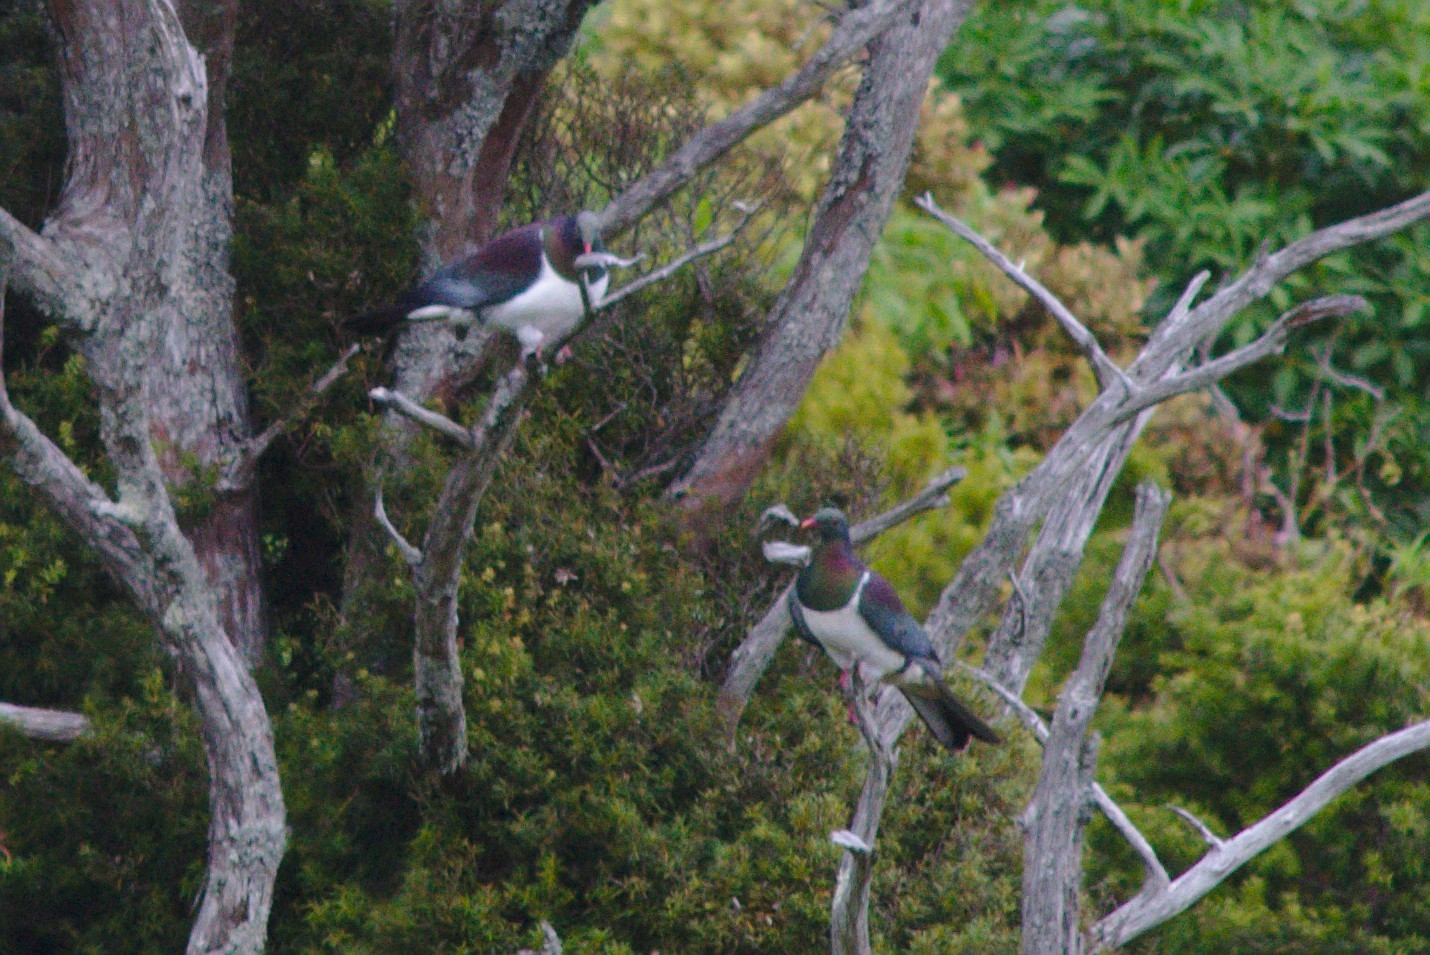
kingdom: Animalia
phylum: Chordata
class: Aves
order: Columbiformes
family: Columbidae
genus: Hemiphaga
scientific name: Hemiphaga novaeseelandiae
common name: New zealand pigeon
